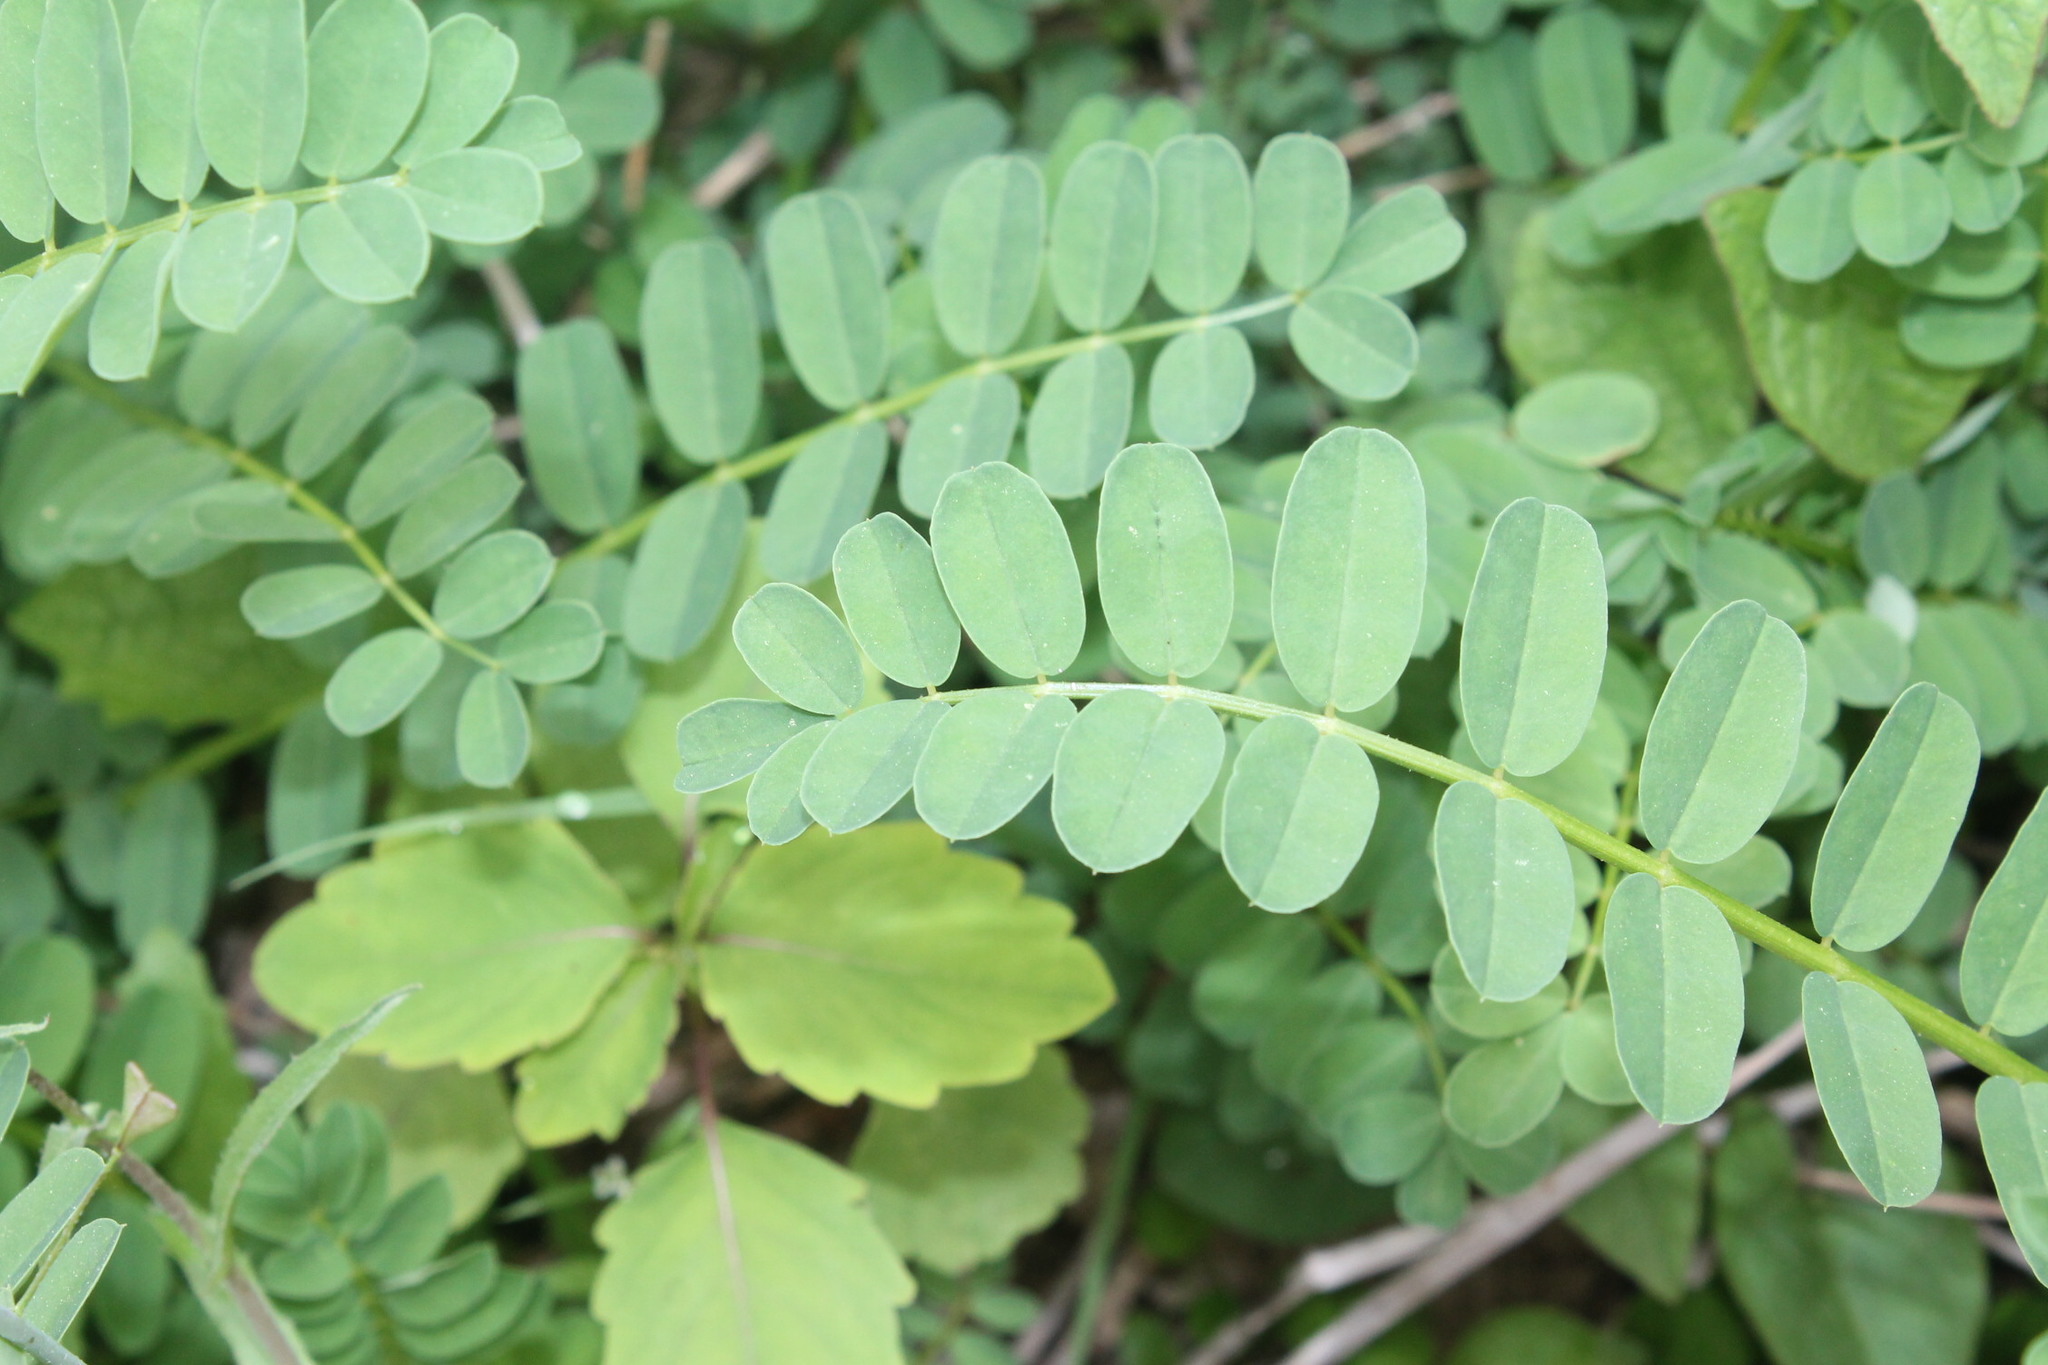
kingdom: Plantae
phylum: Tracheophyta
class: Magnoliopsida
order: Fabales
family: Fabaceae
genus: Coronilla
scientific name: Coronilla varia
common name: Crownvetch
